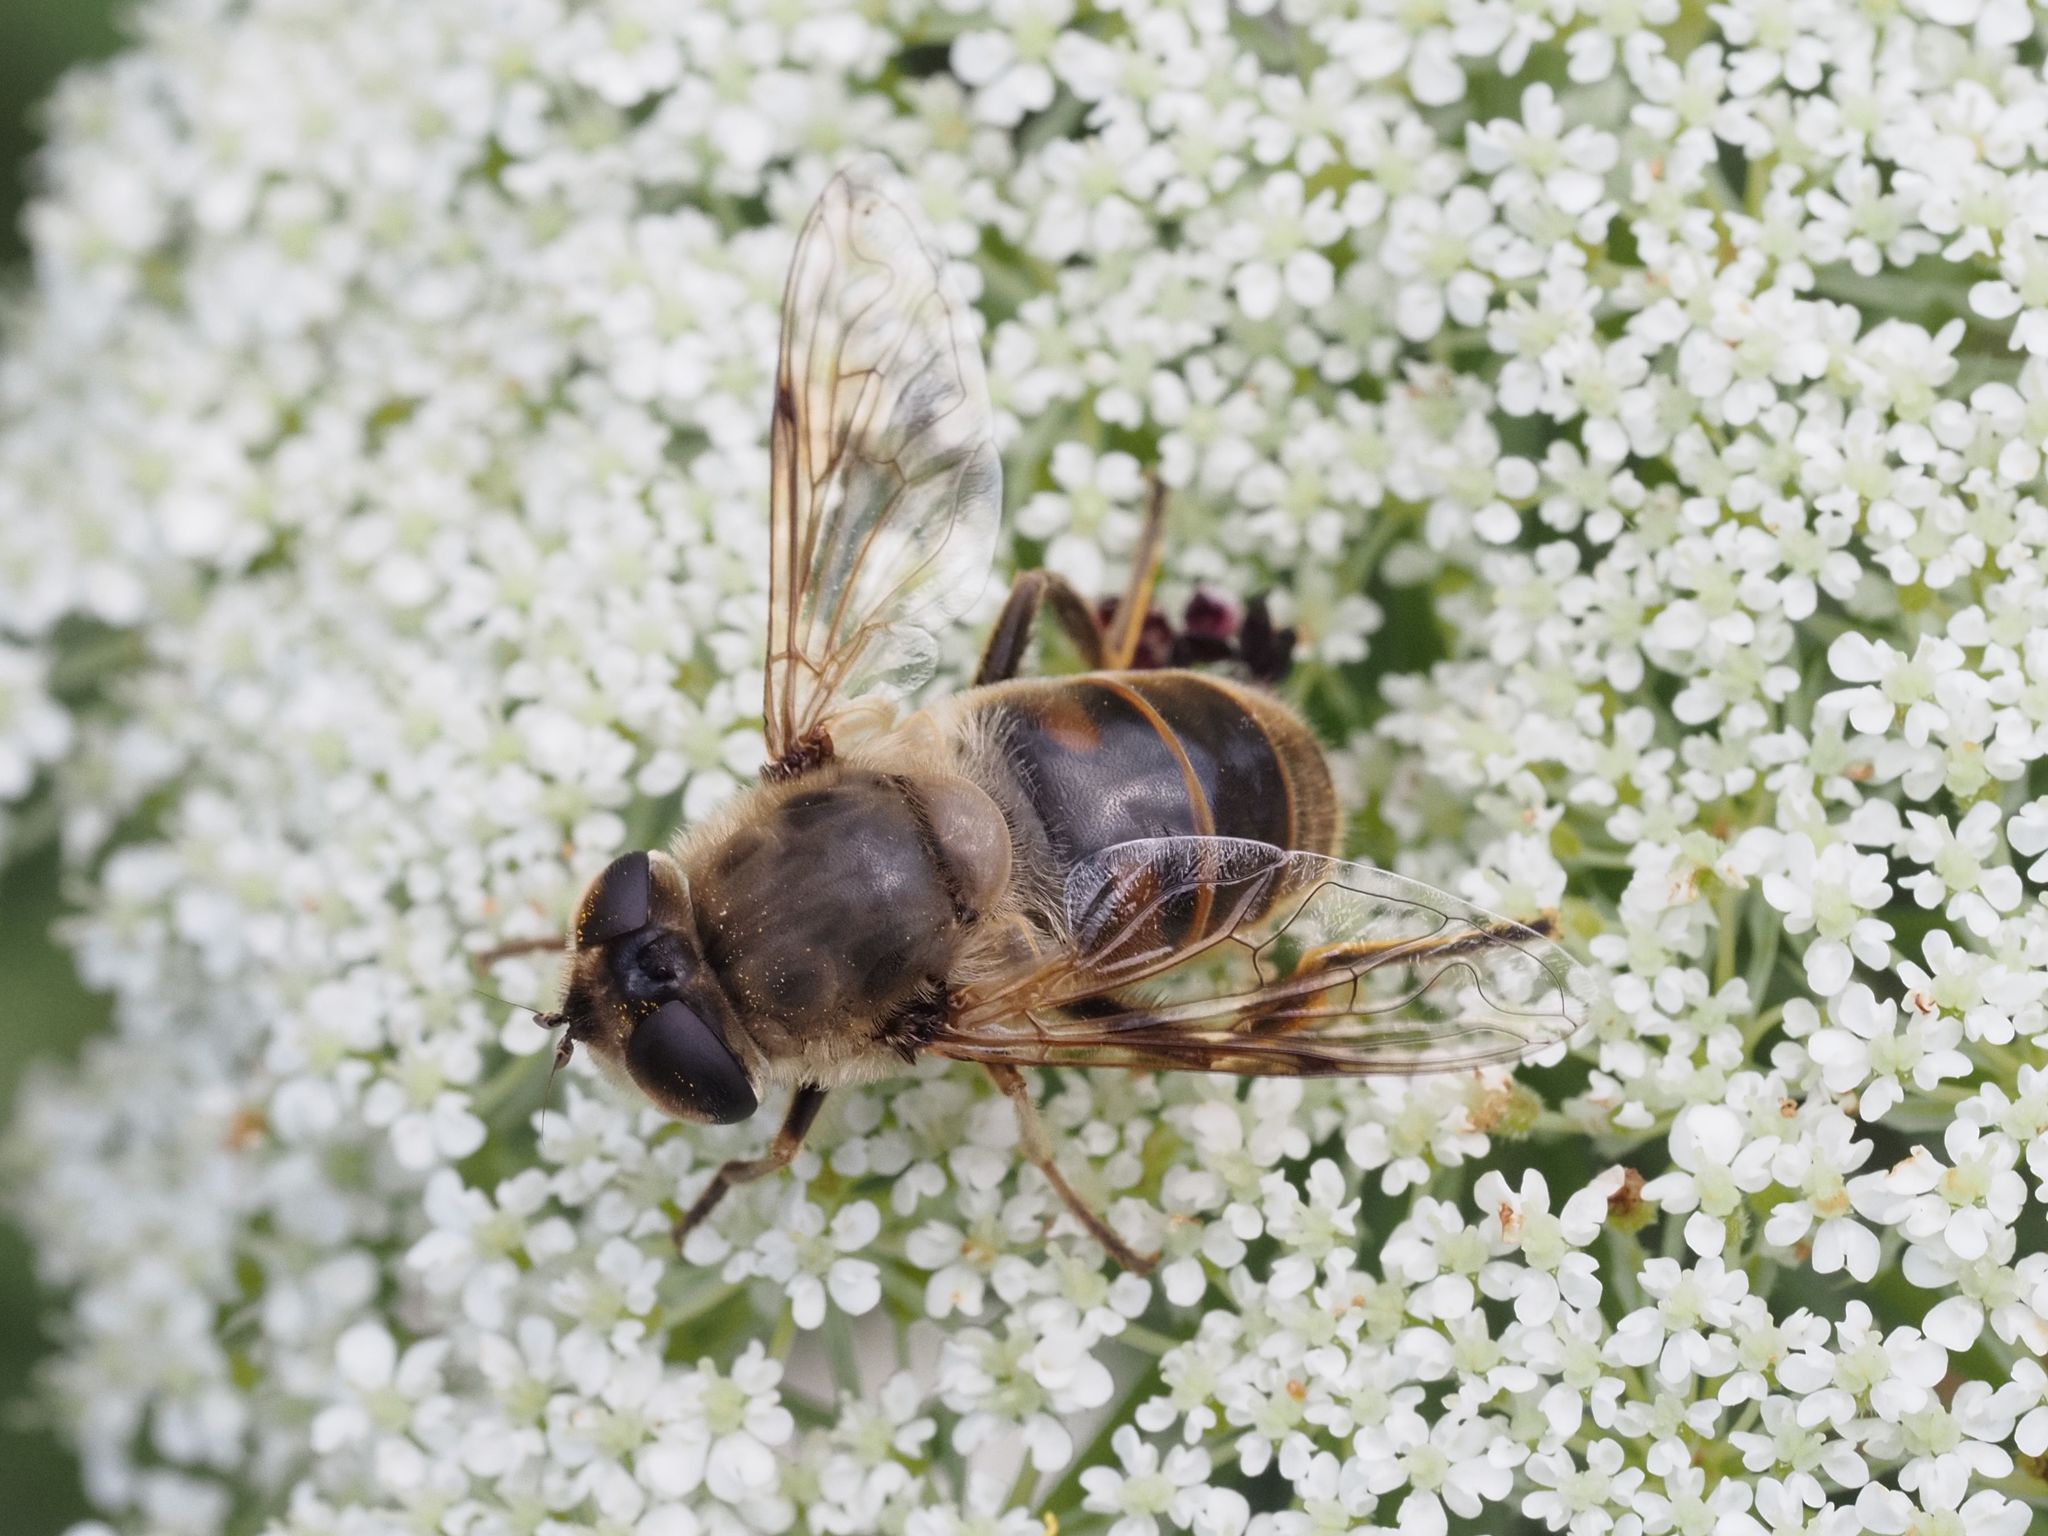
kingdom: Animalia
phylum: Arthropoda
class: Insecta
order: Diptera
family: Syrphidae
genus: Eristalis
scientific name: Eristalis tenax
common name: Drone fly
